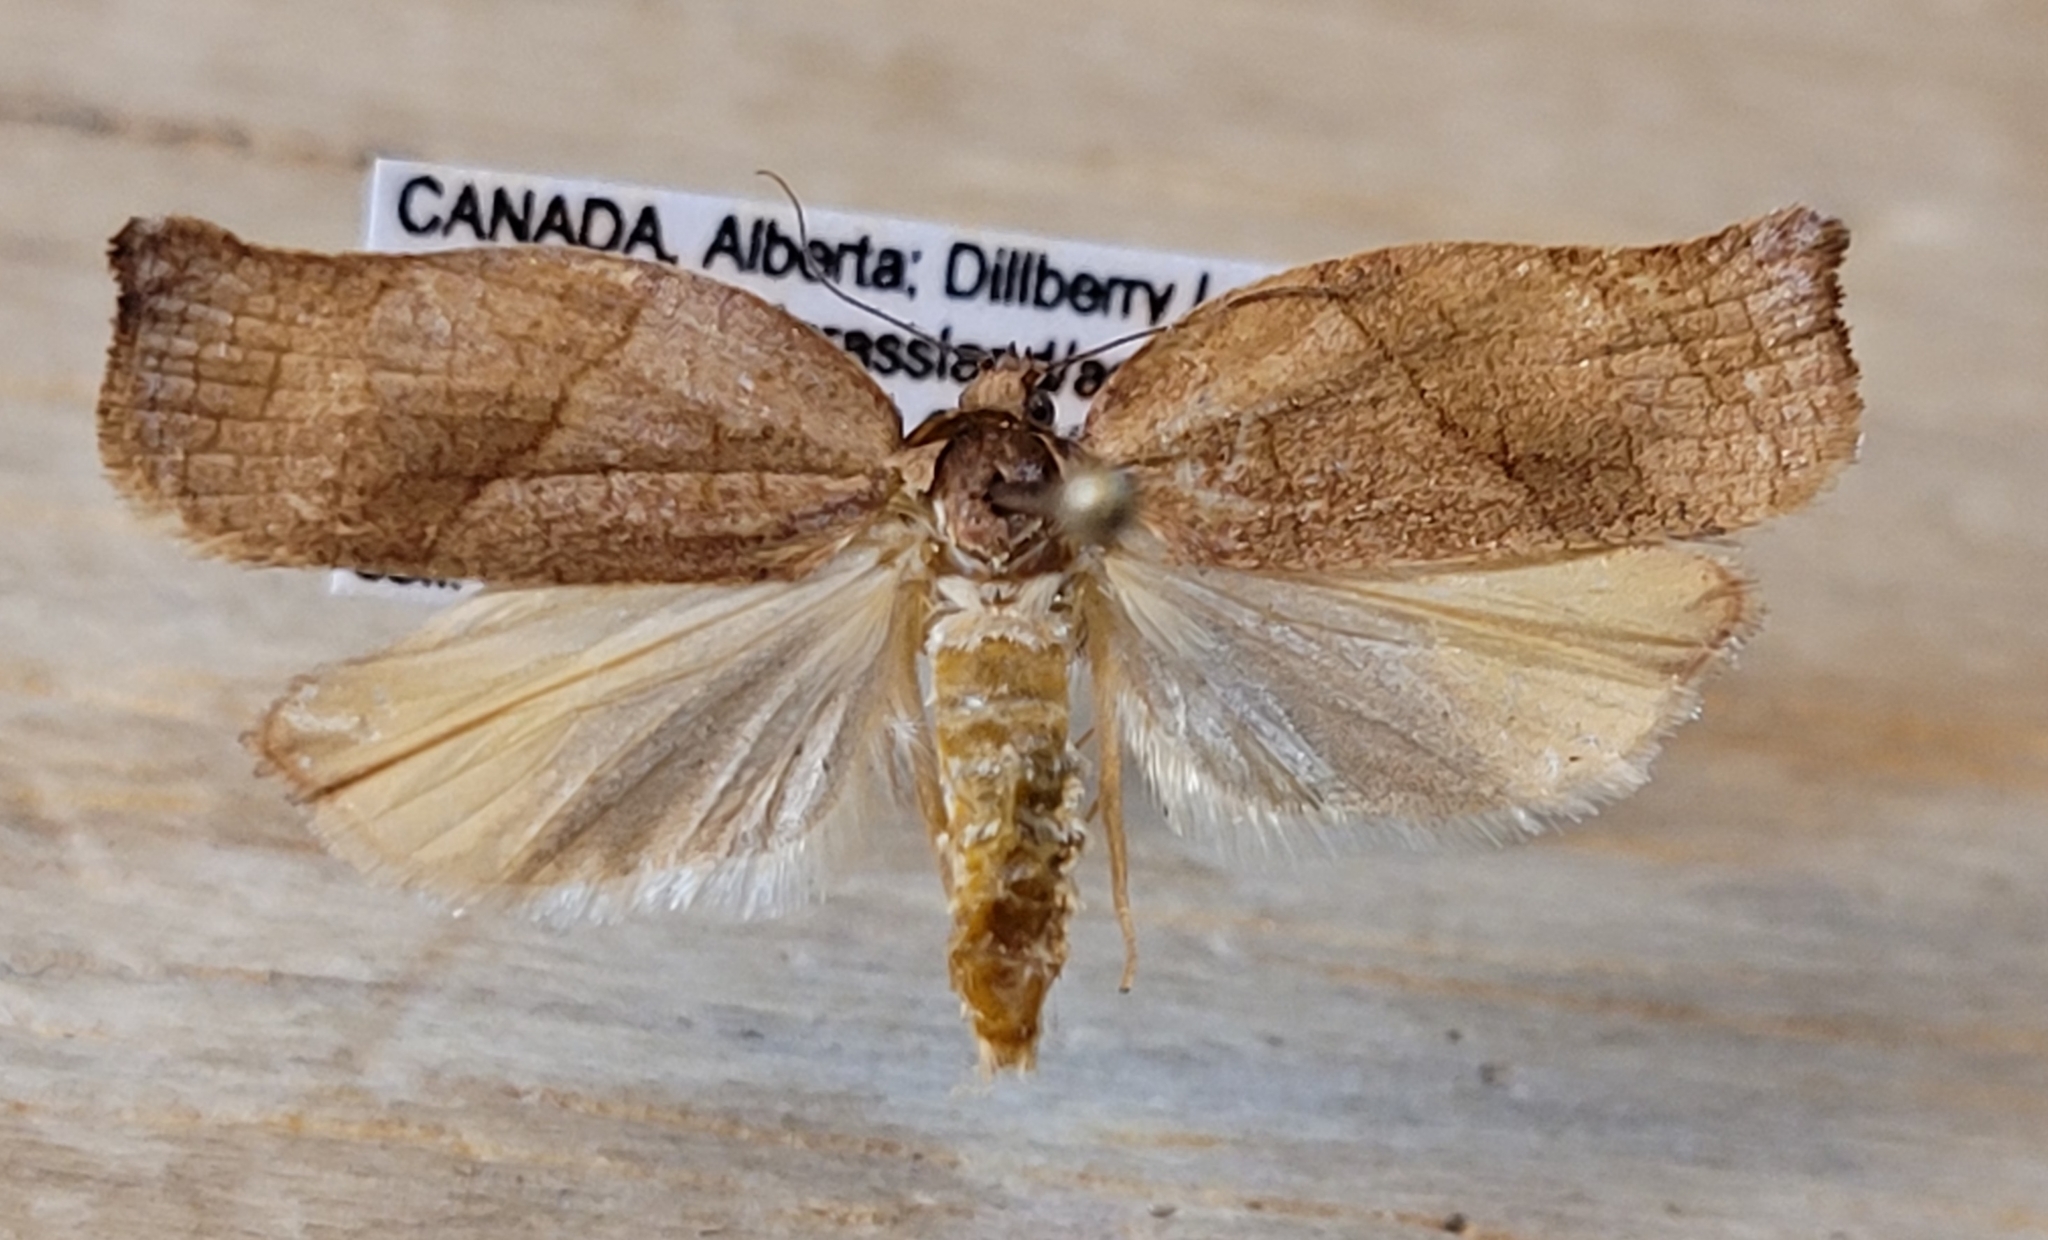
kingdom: Animalia
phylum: Arthropoda
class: Insecta
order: Lepidoptera
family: Tortricidae
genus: Choristoneura
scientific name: Choristoneura rosaceana
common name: Oblique-banded leafroller moth
